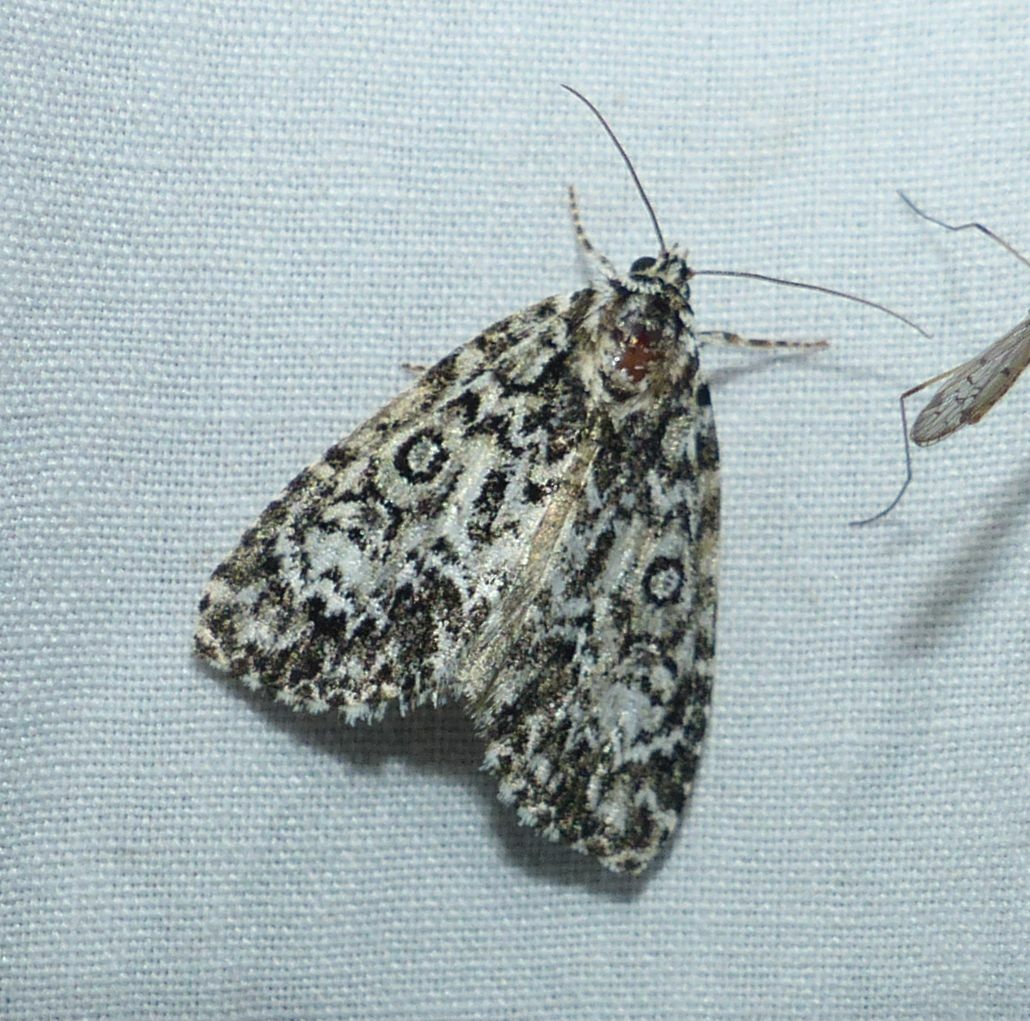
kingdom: Animalia
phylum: Arthropoda
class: Insecta
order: Lepidoptera
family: Noctuidae
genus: Acronicta
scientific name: Acronicta heitzmani
